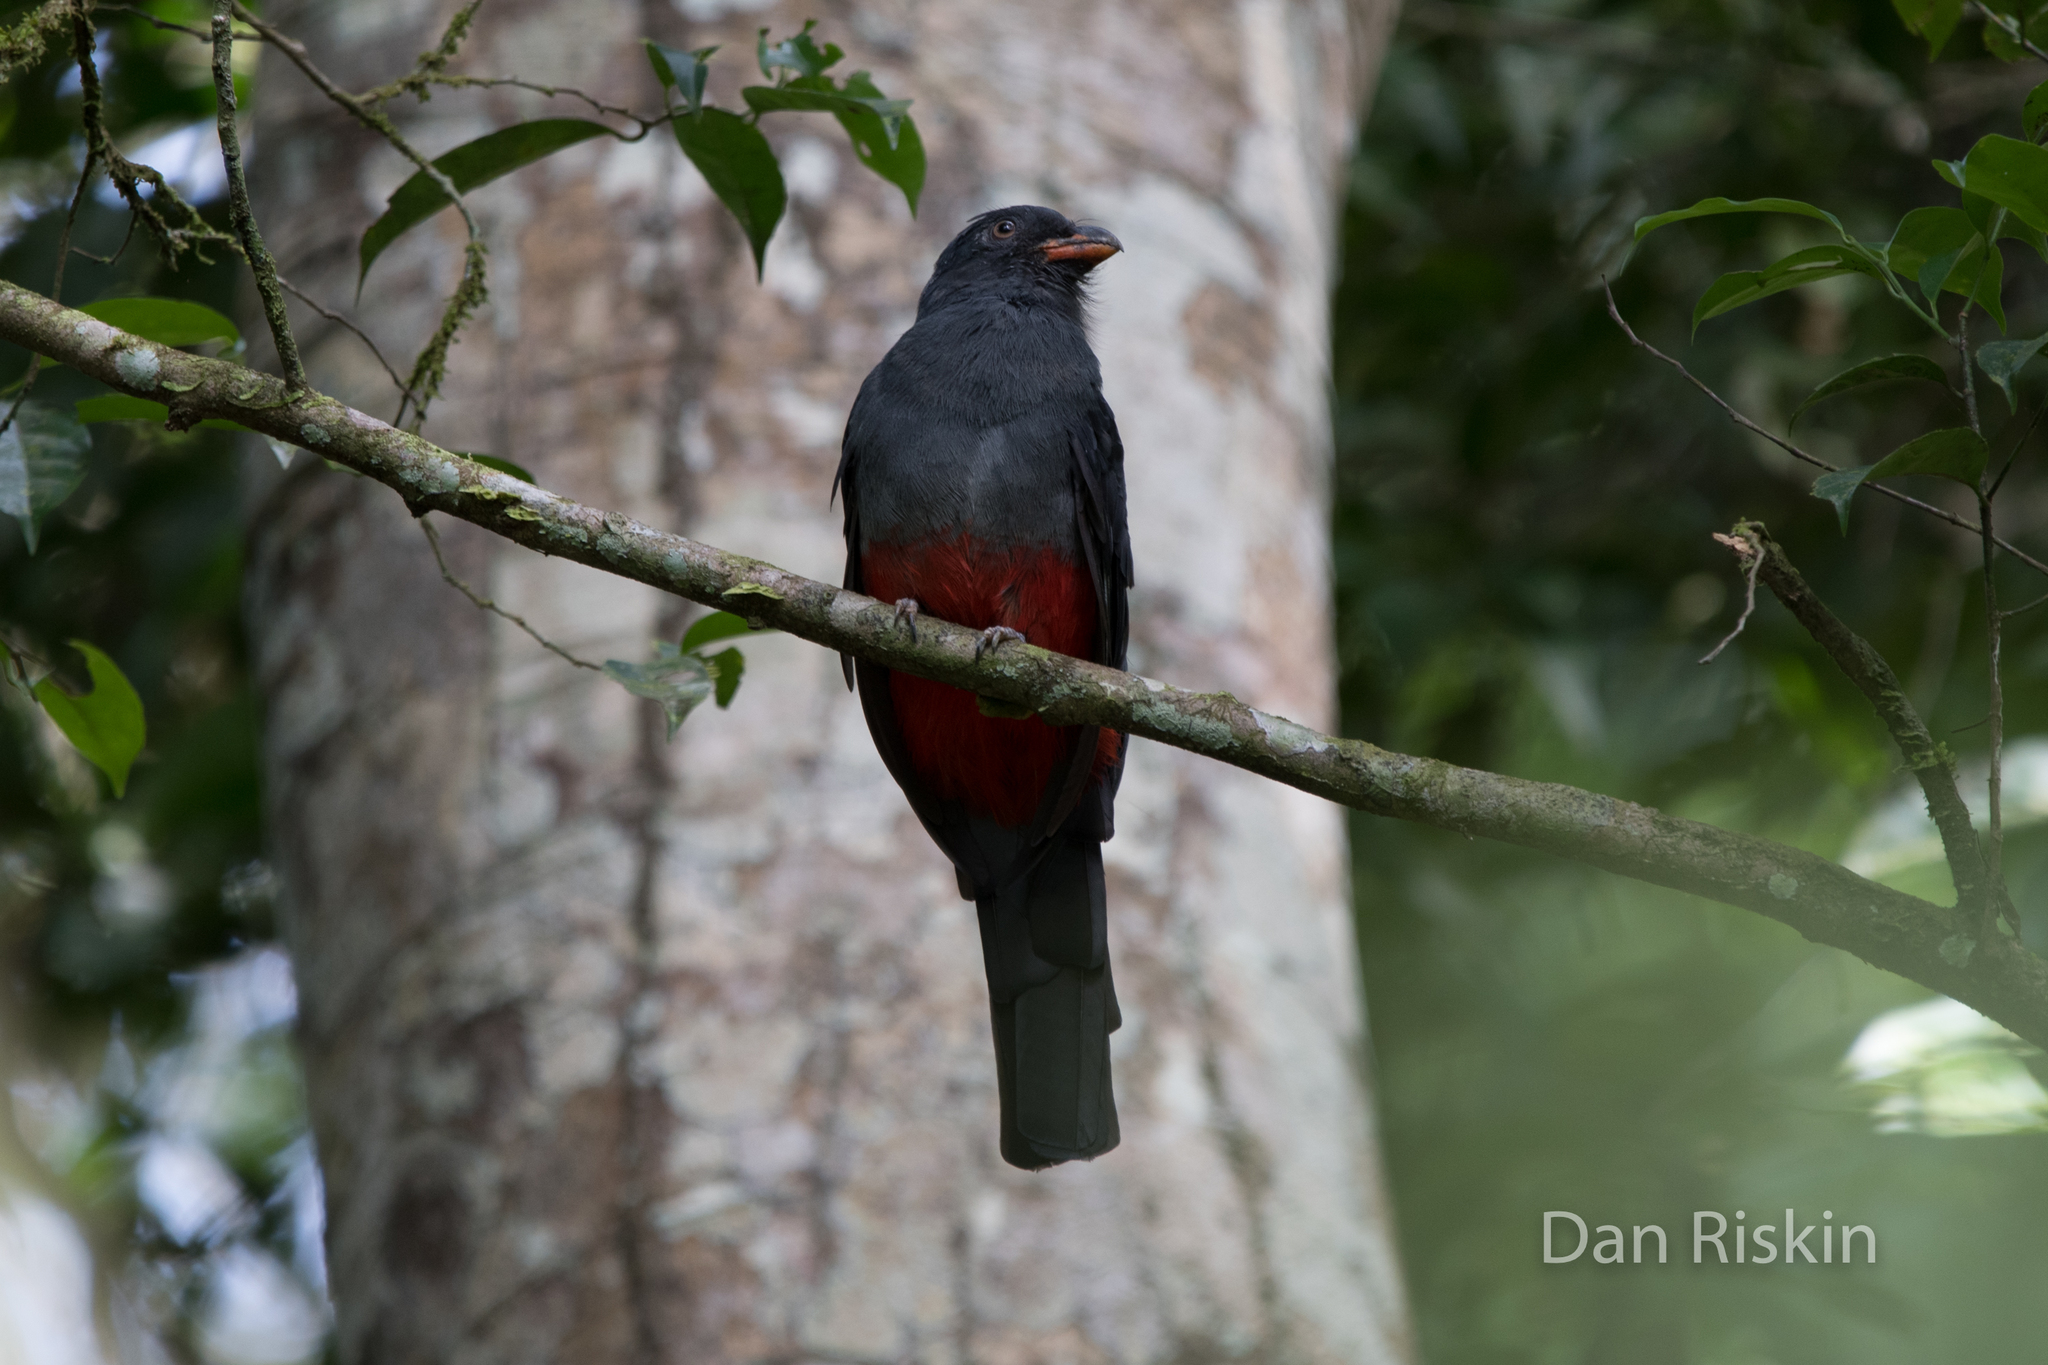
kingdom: Animalia
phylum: Chordata
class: Aves
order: Trogoniformes
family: Trogonidae
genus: Trogon
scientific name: Trogon massena
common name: Slaty-tailed trogon
